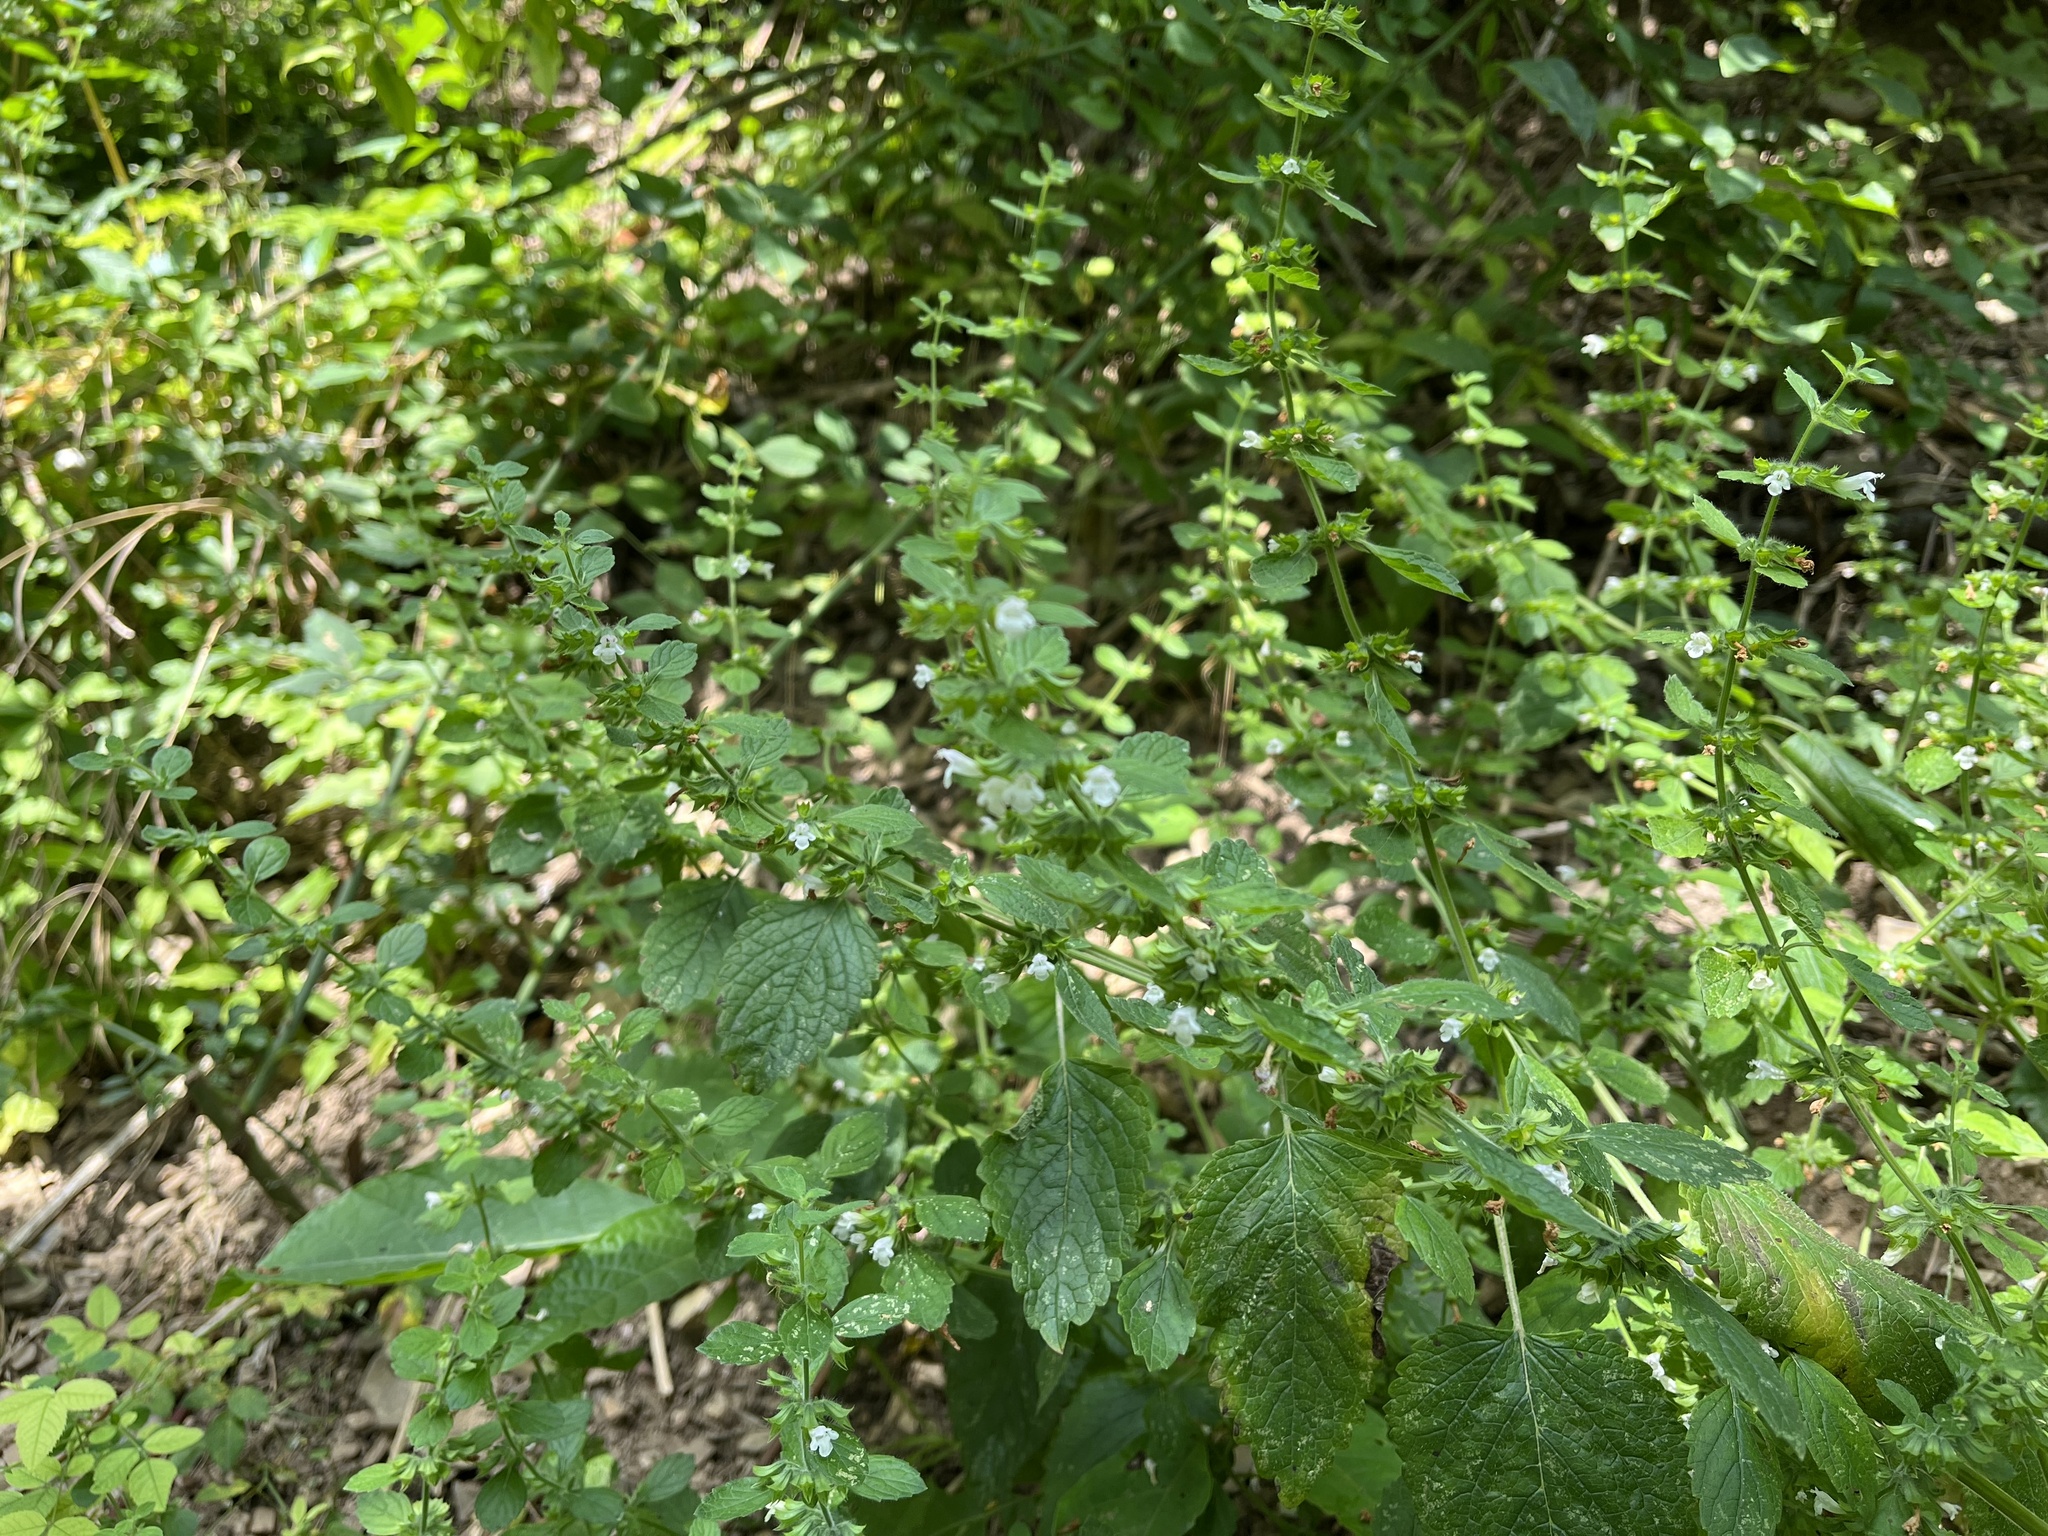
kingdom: Plantae
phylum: Tracheophyta
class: Magnoliopsida
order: Lamiales
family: Lamiaceae
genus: Melissa
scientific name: Melissa officinalis
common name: Balm
